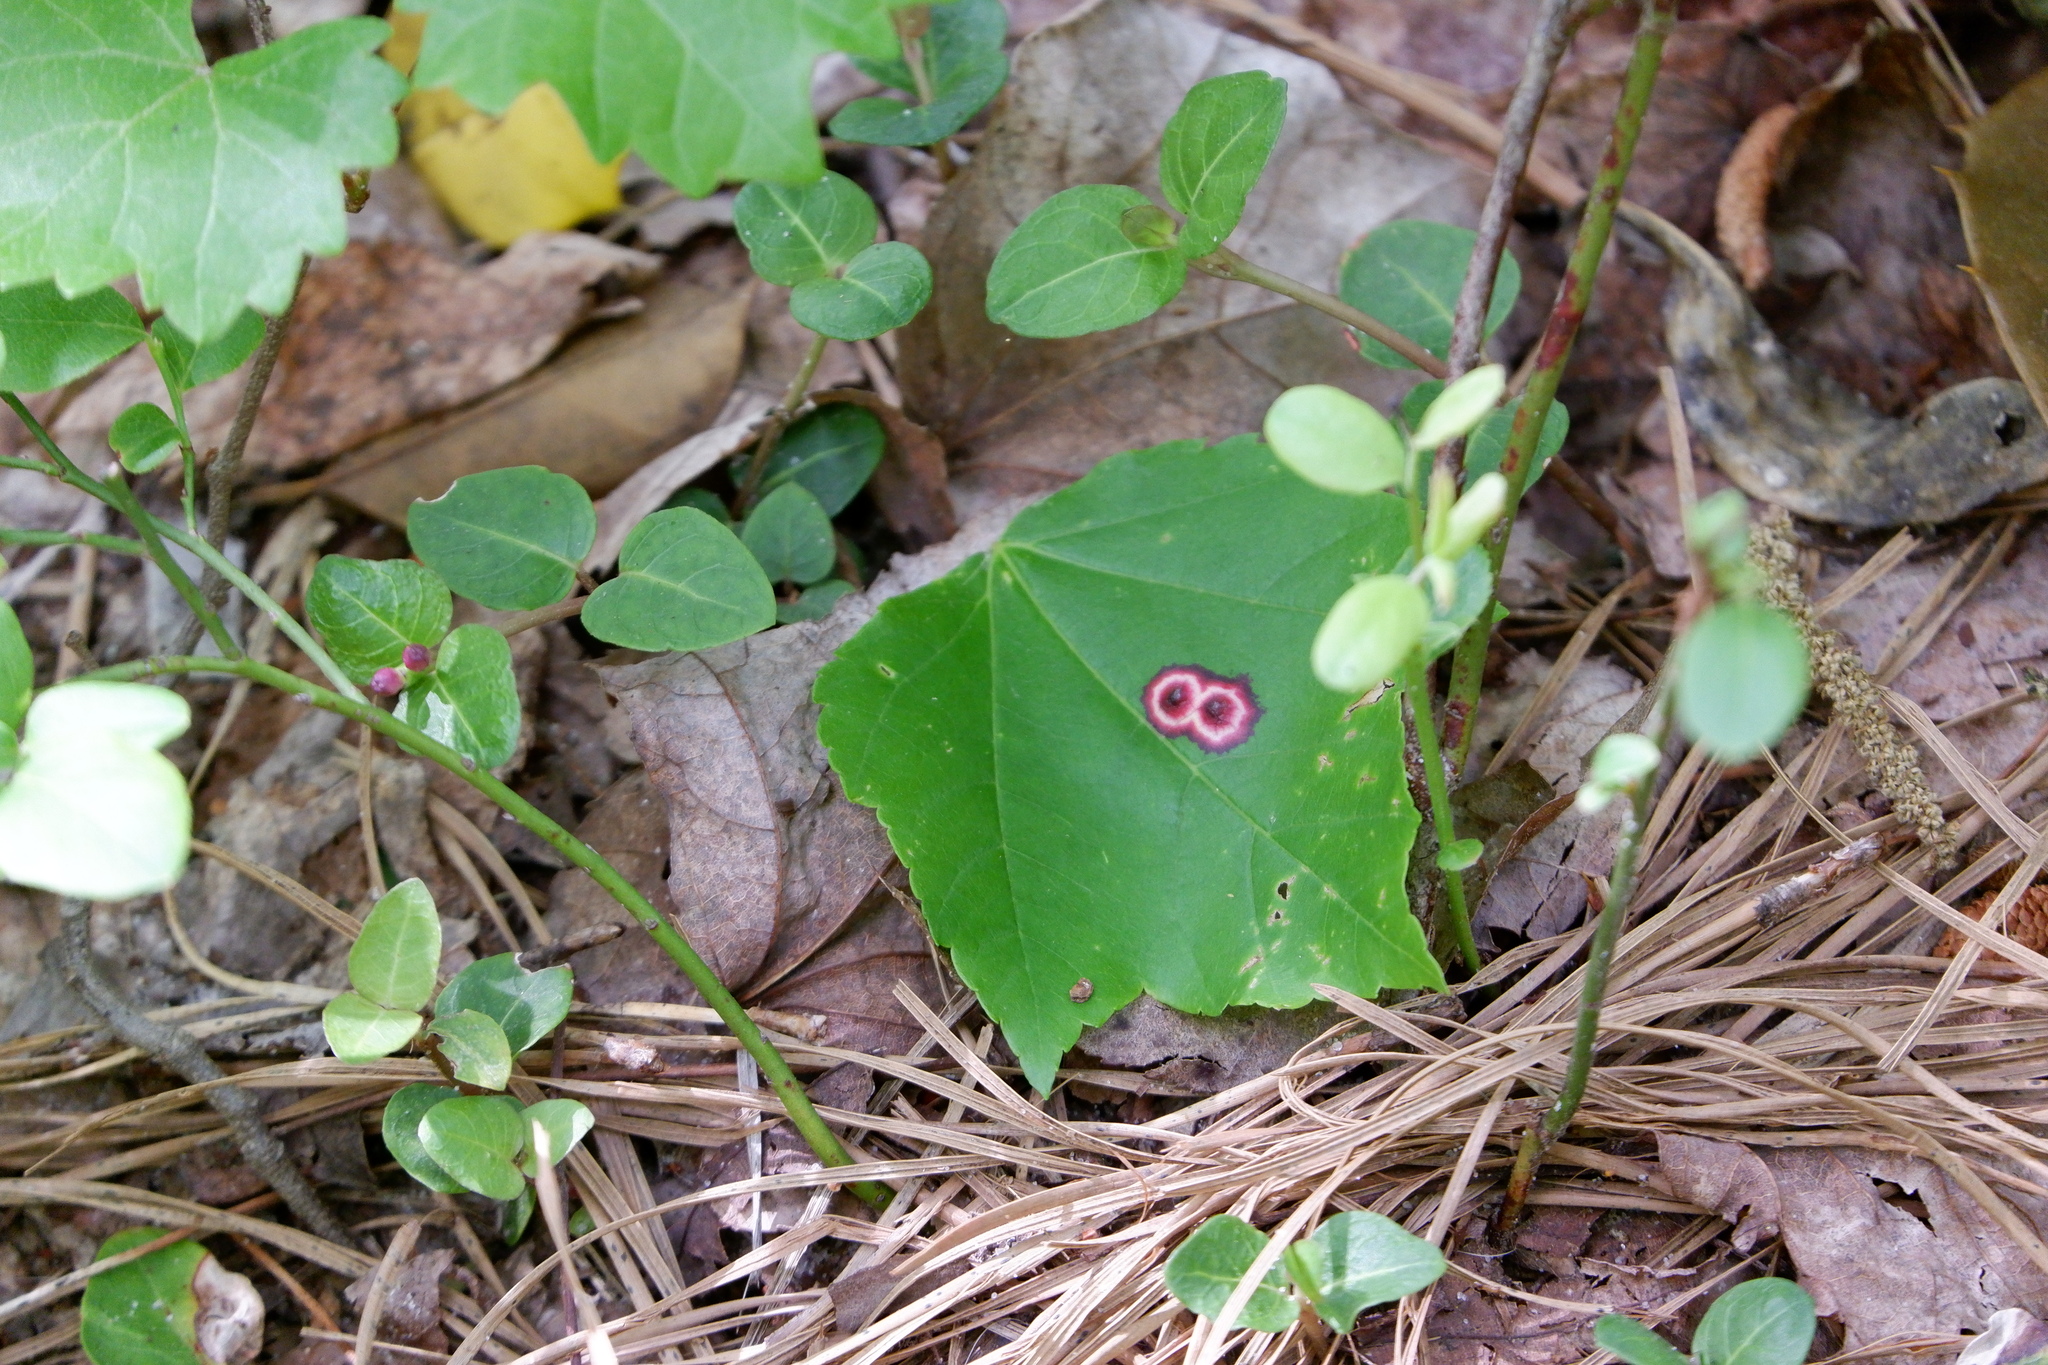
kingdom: Animalia
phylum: Arthropoda
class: Insecta
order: Diptera
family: Cecidomyiidae
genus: Acericecis
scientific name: Acericecis ocellaris
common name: Ocellate gall midge
